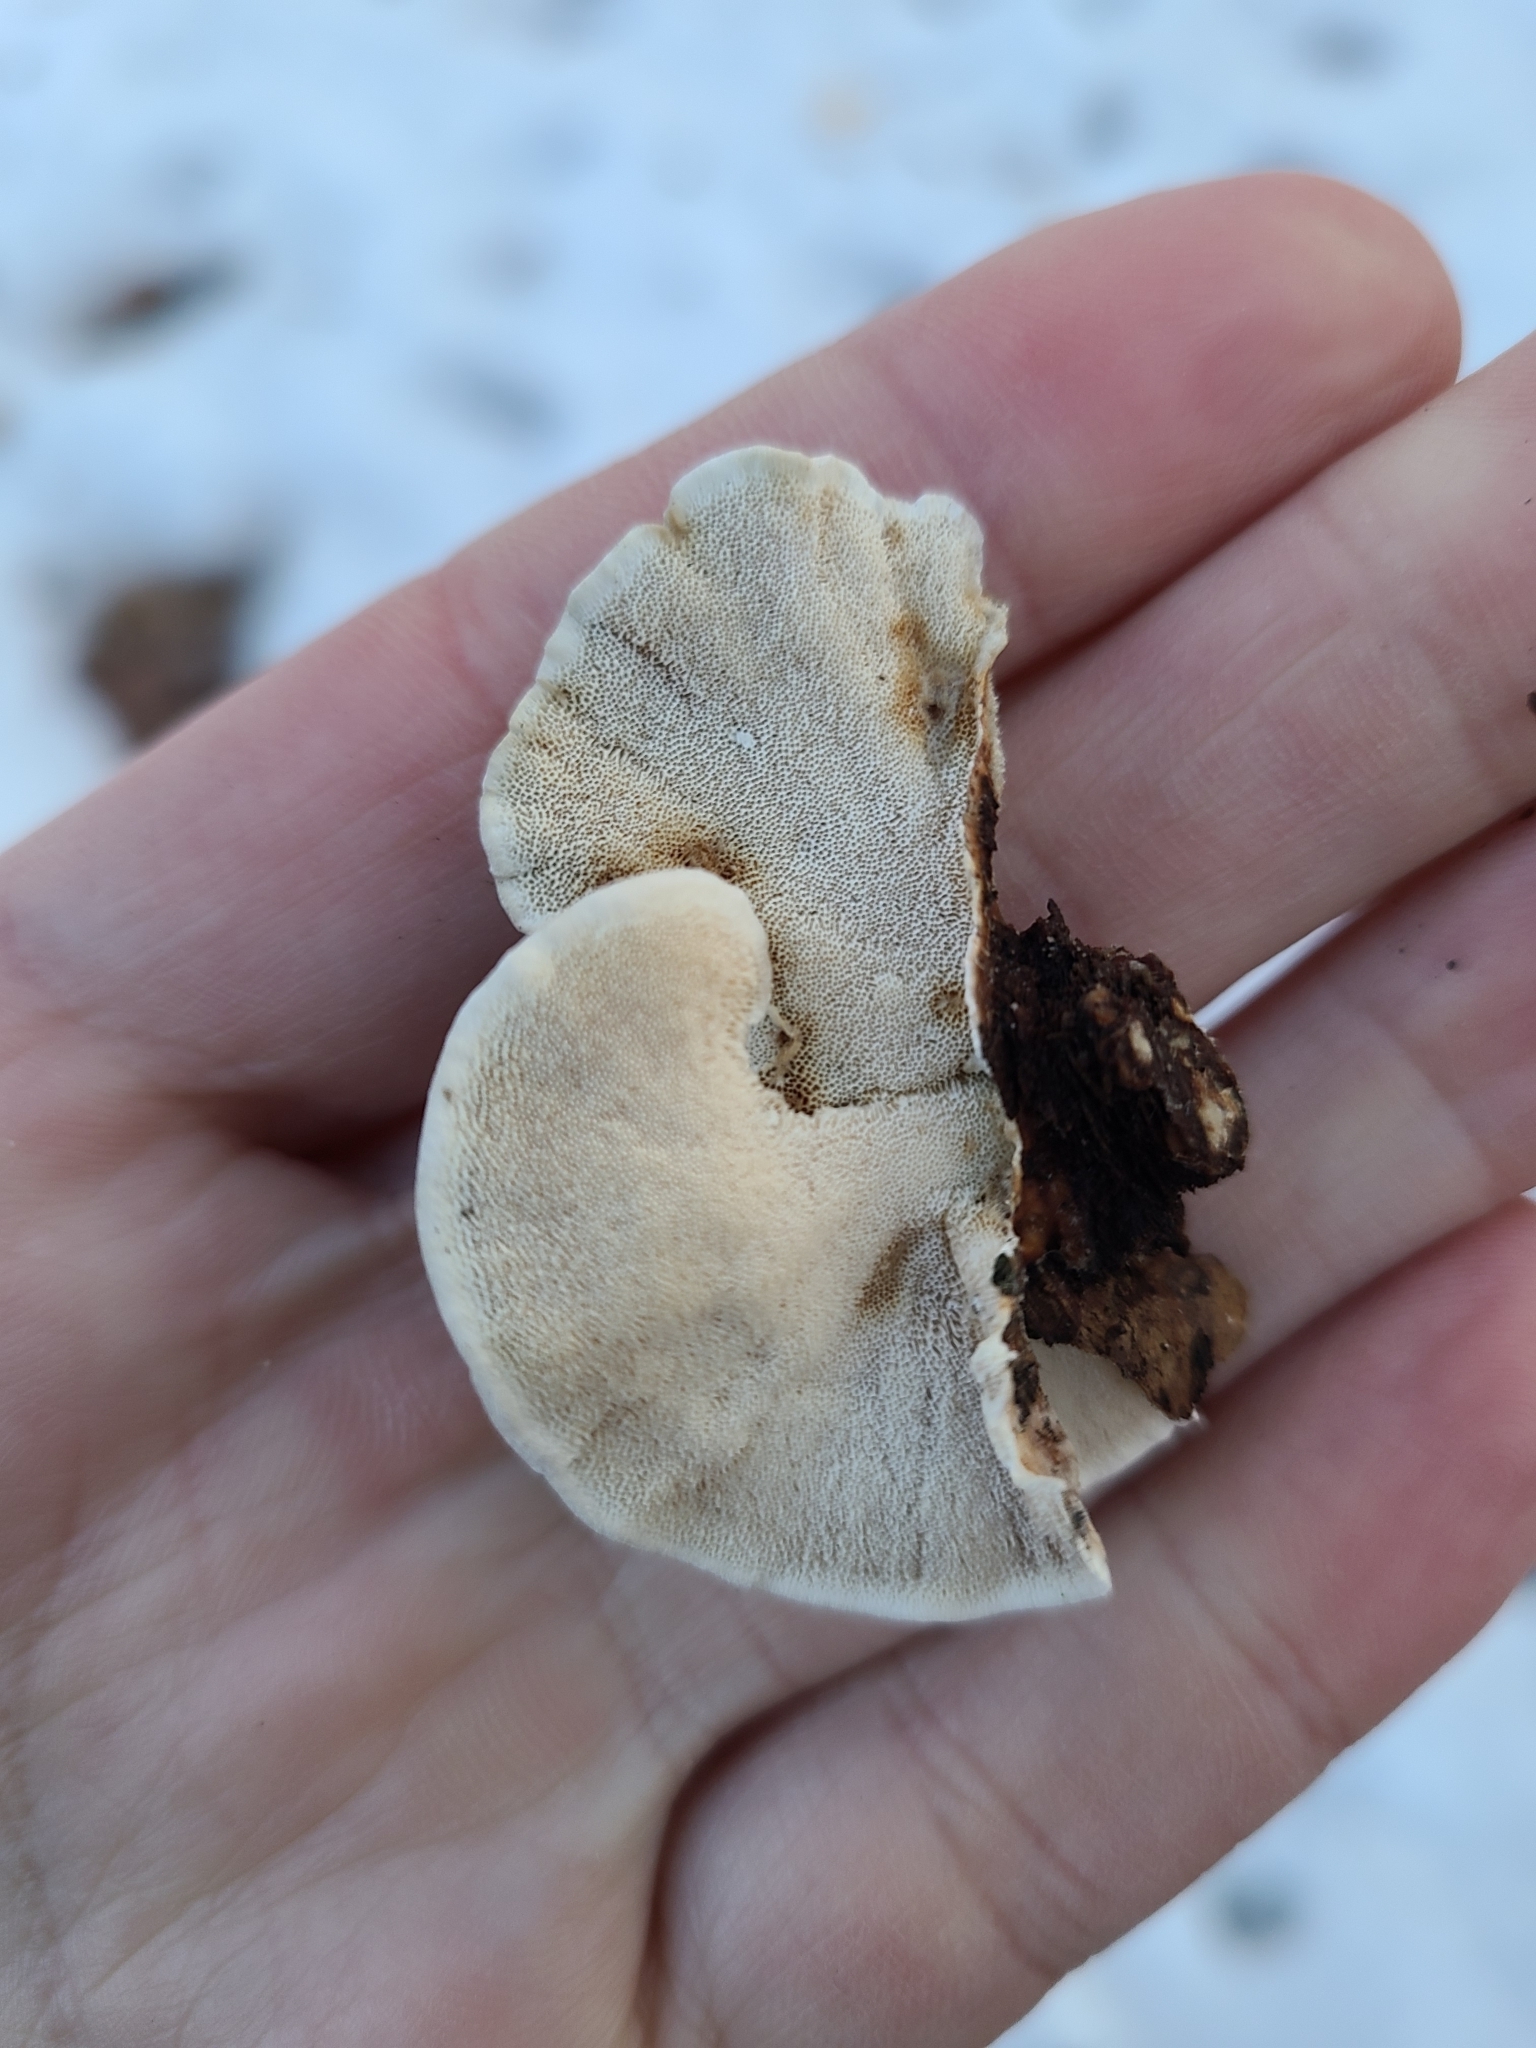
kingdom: Fungi
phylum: Basidiomycota
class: Agaricomycetes
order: Polyporales
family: Polyporaceae
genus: Trametes
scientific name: Trametes versicolor
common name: Turkeytail
